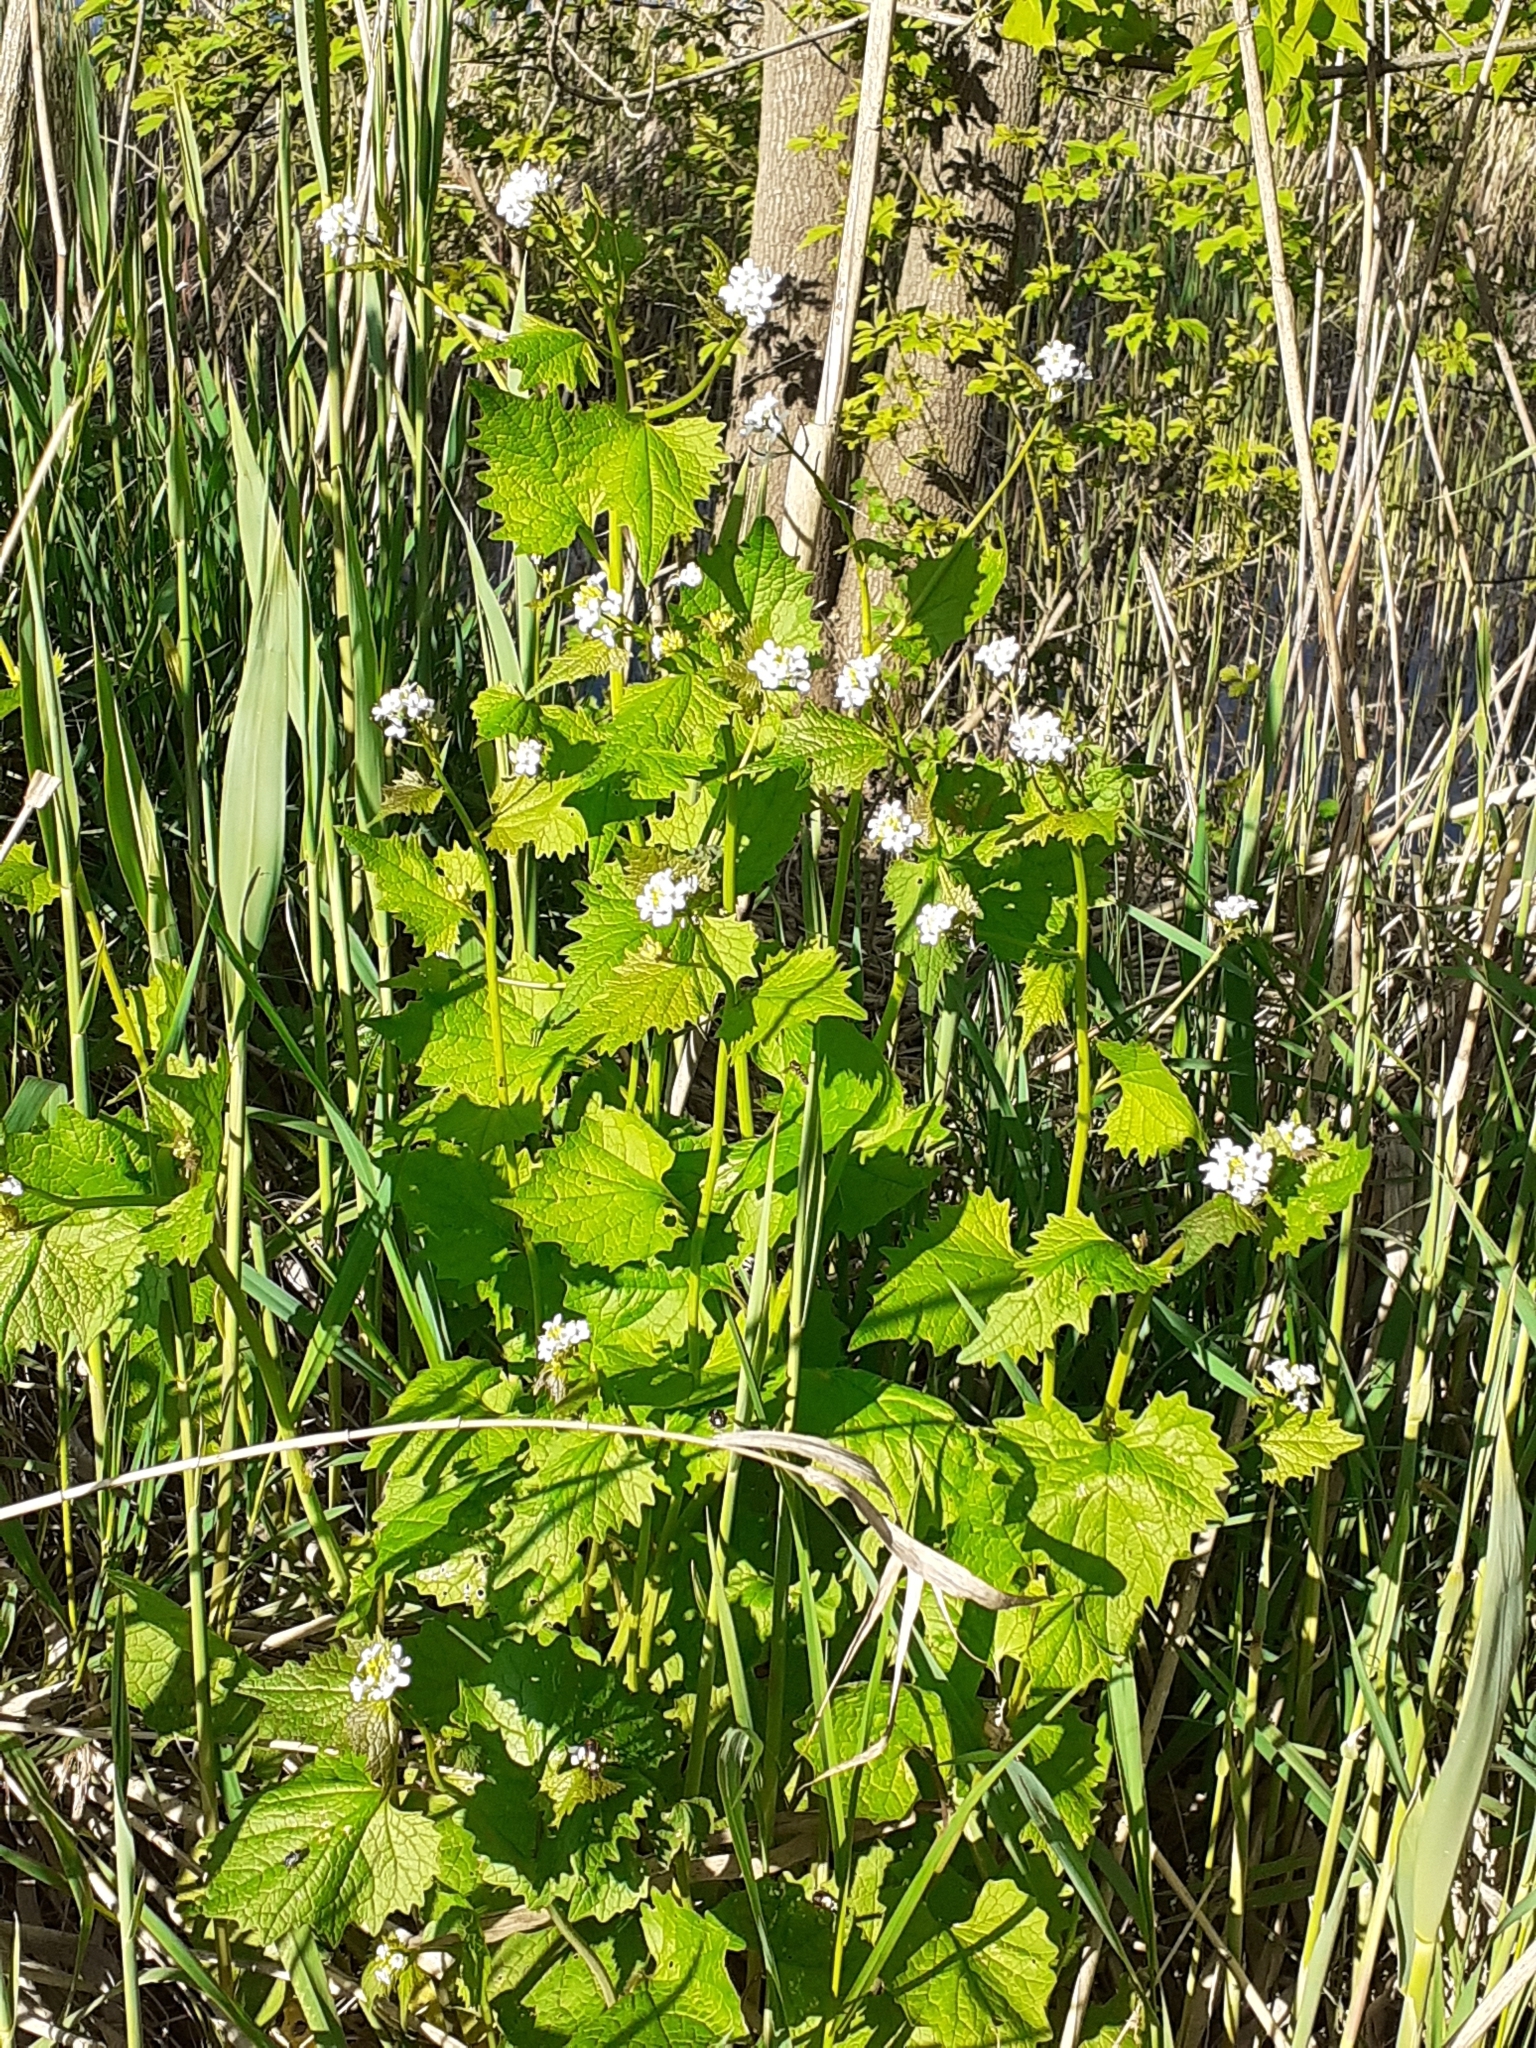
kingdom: Plantae
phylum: Tracheophyta
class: Magnoliopsida
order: Brassicales
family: Brassicaceae
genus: Alliaria
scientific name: Alliaria petiolata
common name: Garlic mustard
